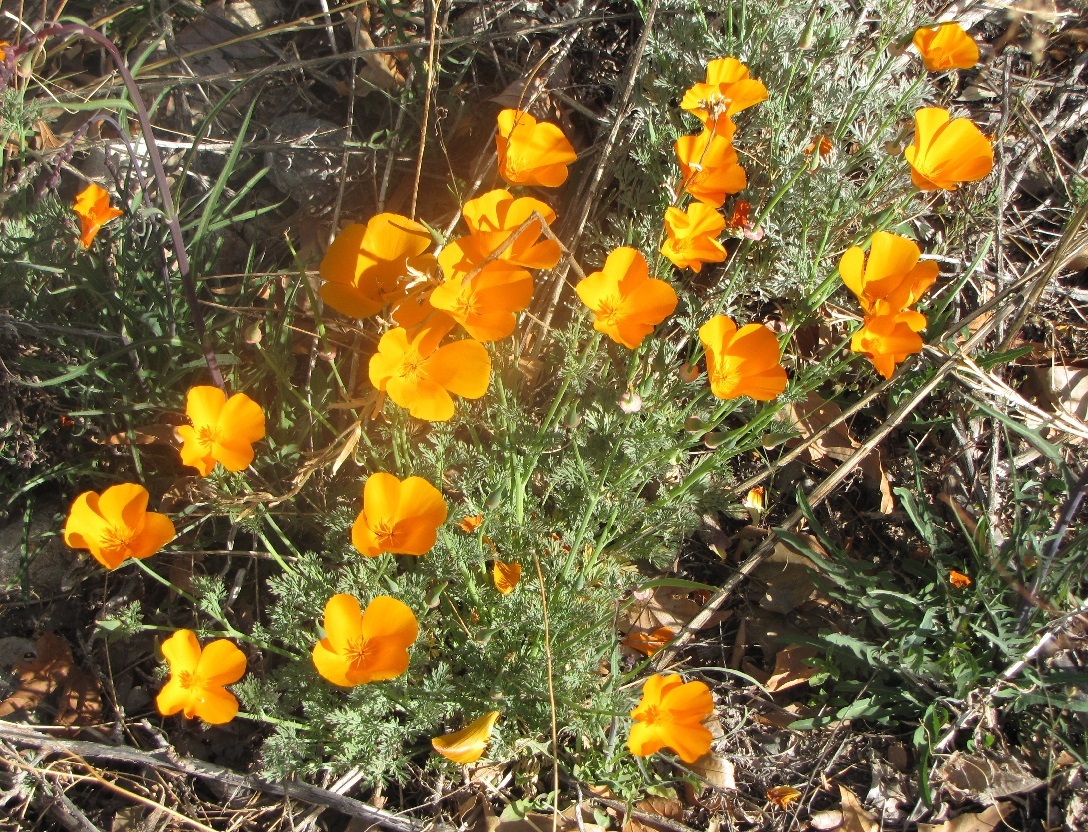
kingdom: Plantae
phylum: Tracheophyta
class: Magnoliopsida
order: Ranunculales
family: Papaveraceae
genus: Eschscholzia
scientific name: Eschscholzia californica
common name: California poppy
